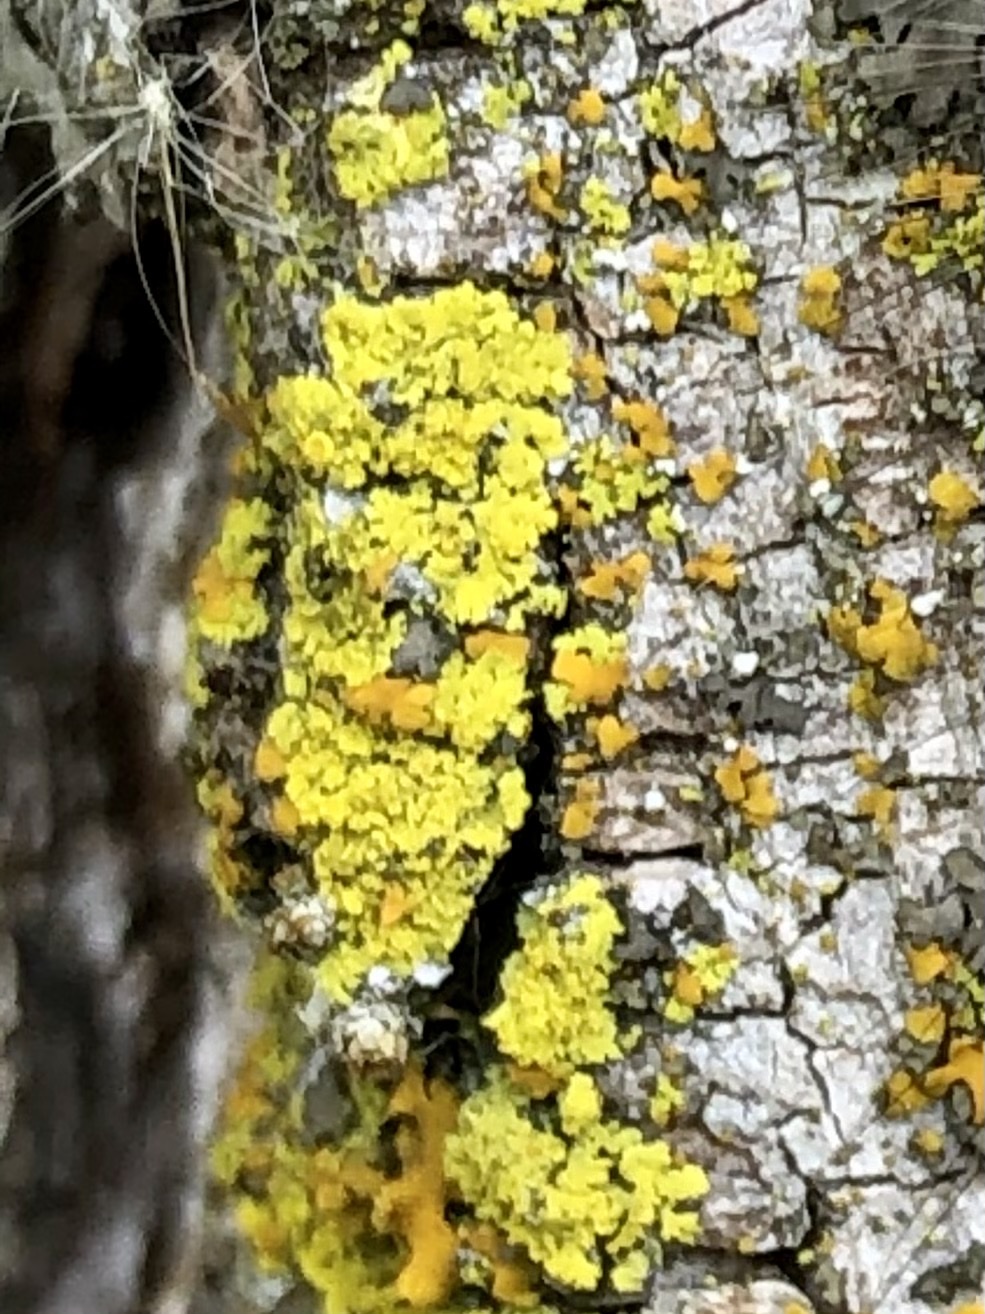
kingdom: Fungi
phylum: Ascomycota
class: Candelariomycetes
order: Candelariales
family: Candelariaceae
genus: Candelaria
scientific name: Candelaria concolor
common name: Candleflame lichen
